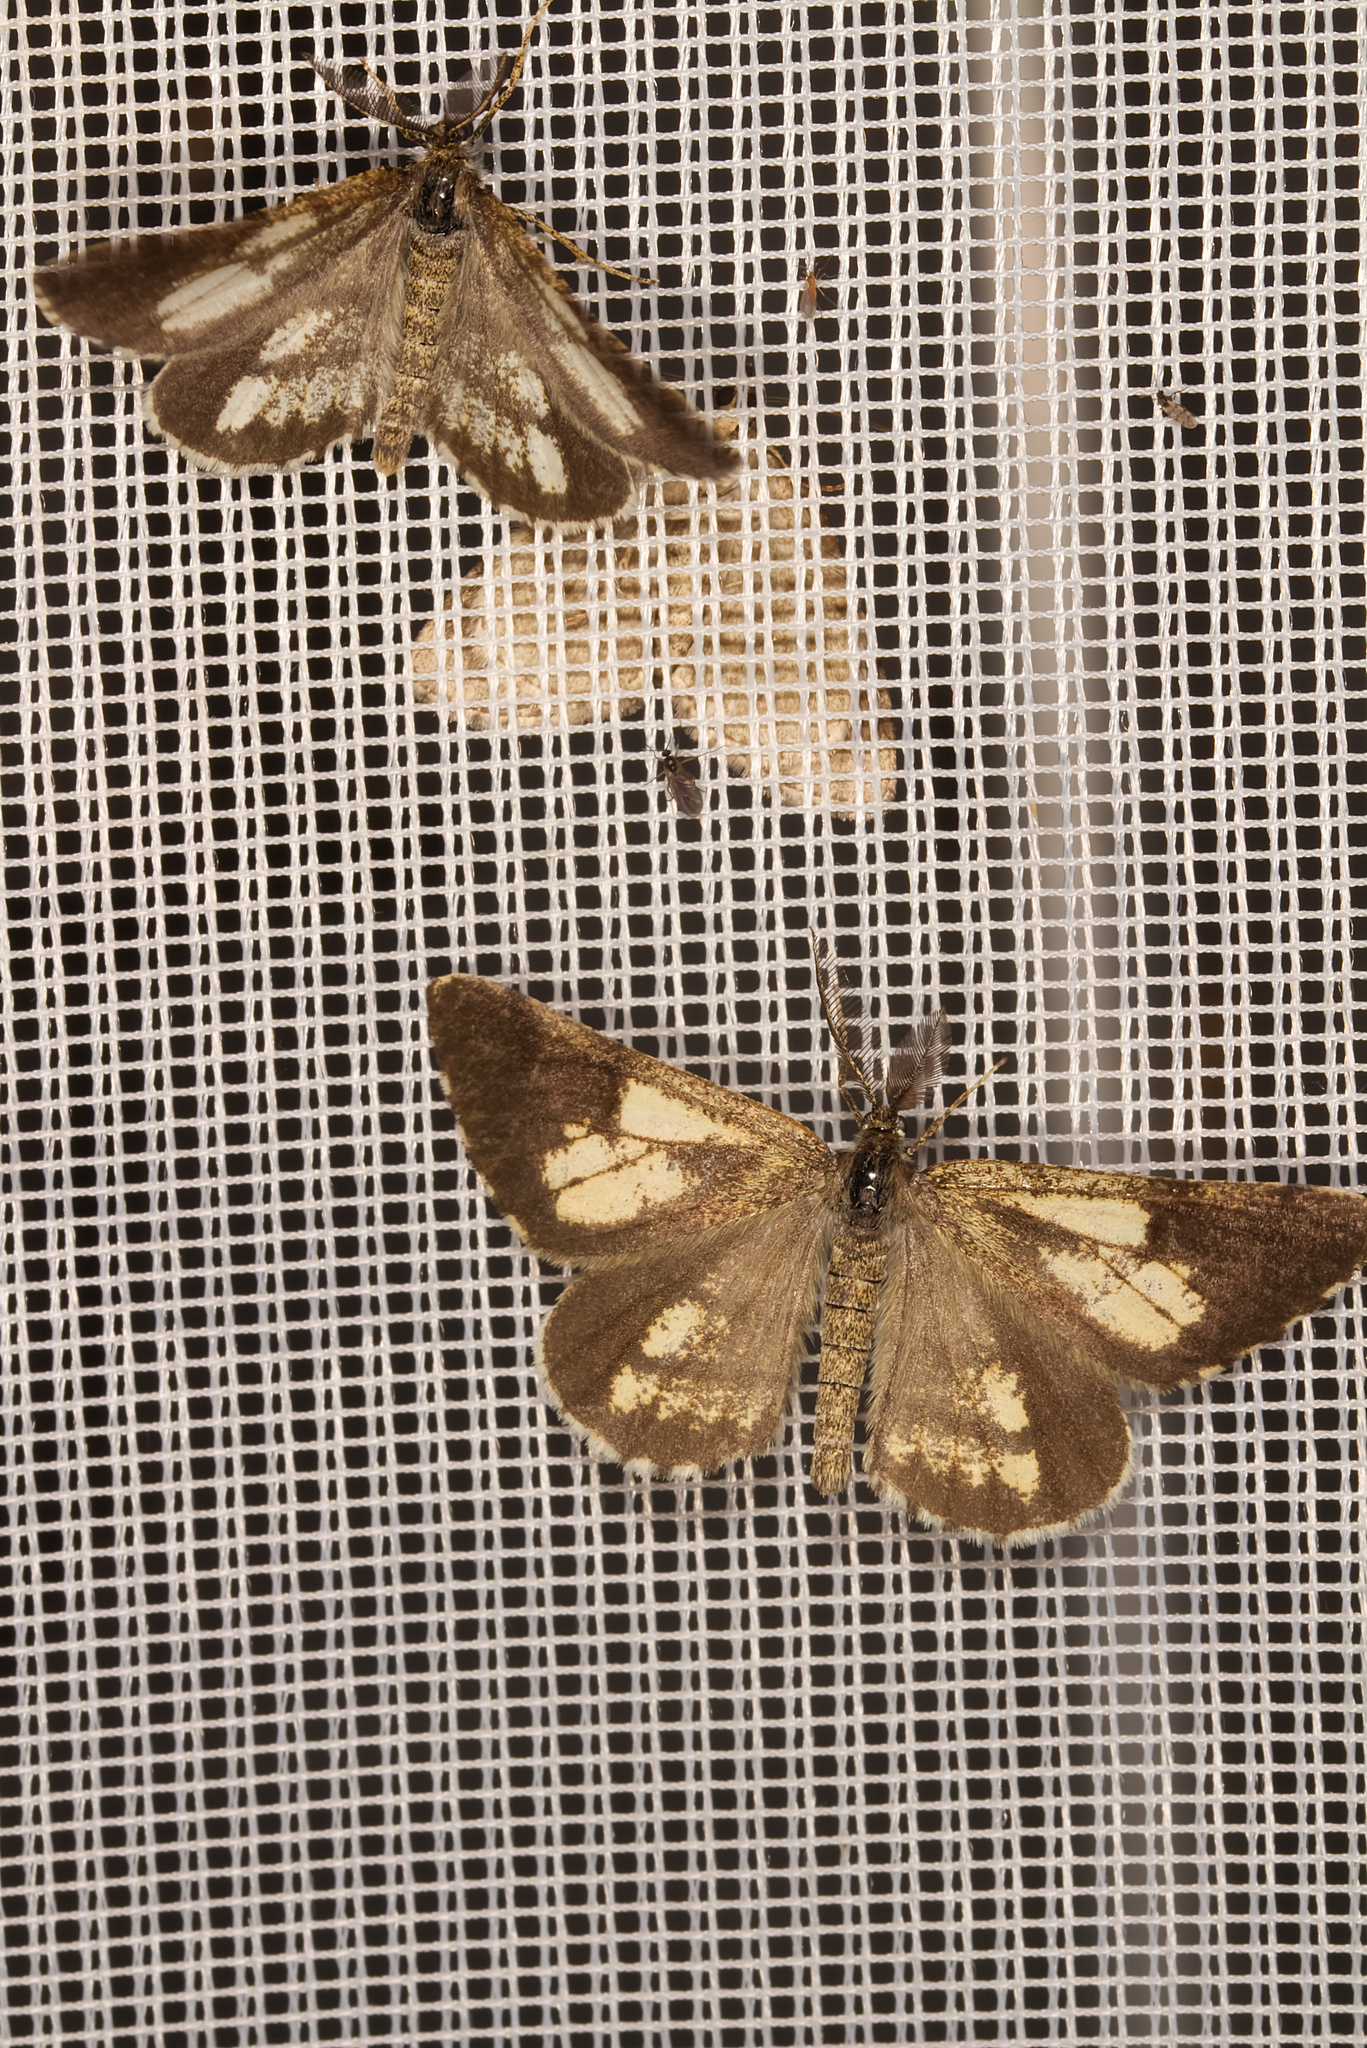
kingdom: Animalia
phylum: Arthropoda
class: Insecta
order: Lepidoptera
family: Geometridae
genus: Bupalus
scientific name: Bupalus piniaria
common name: Bordered white
